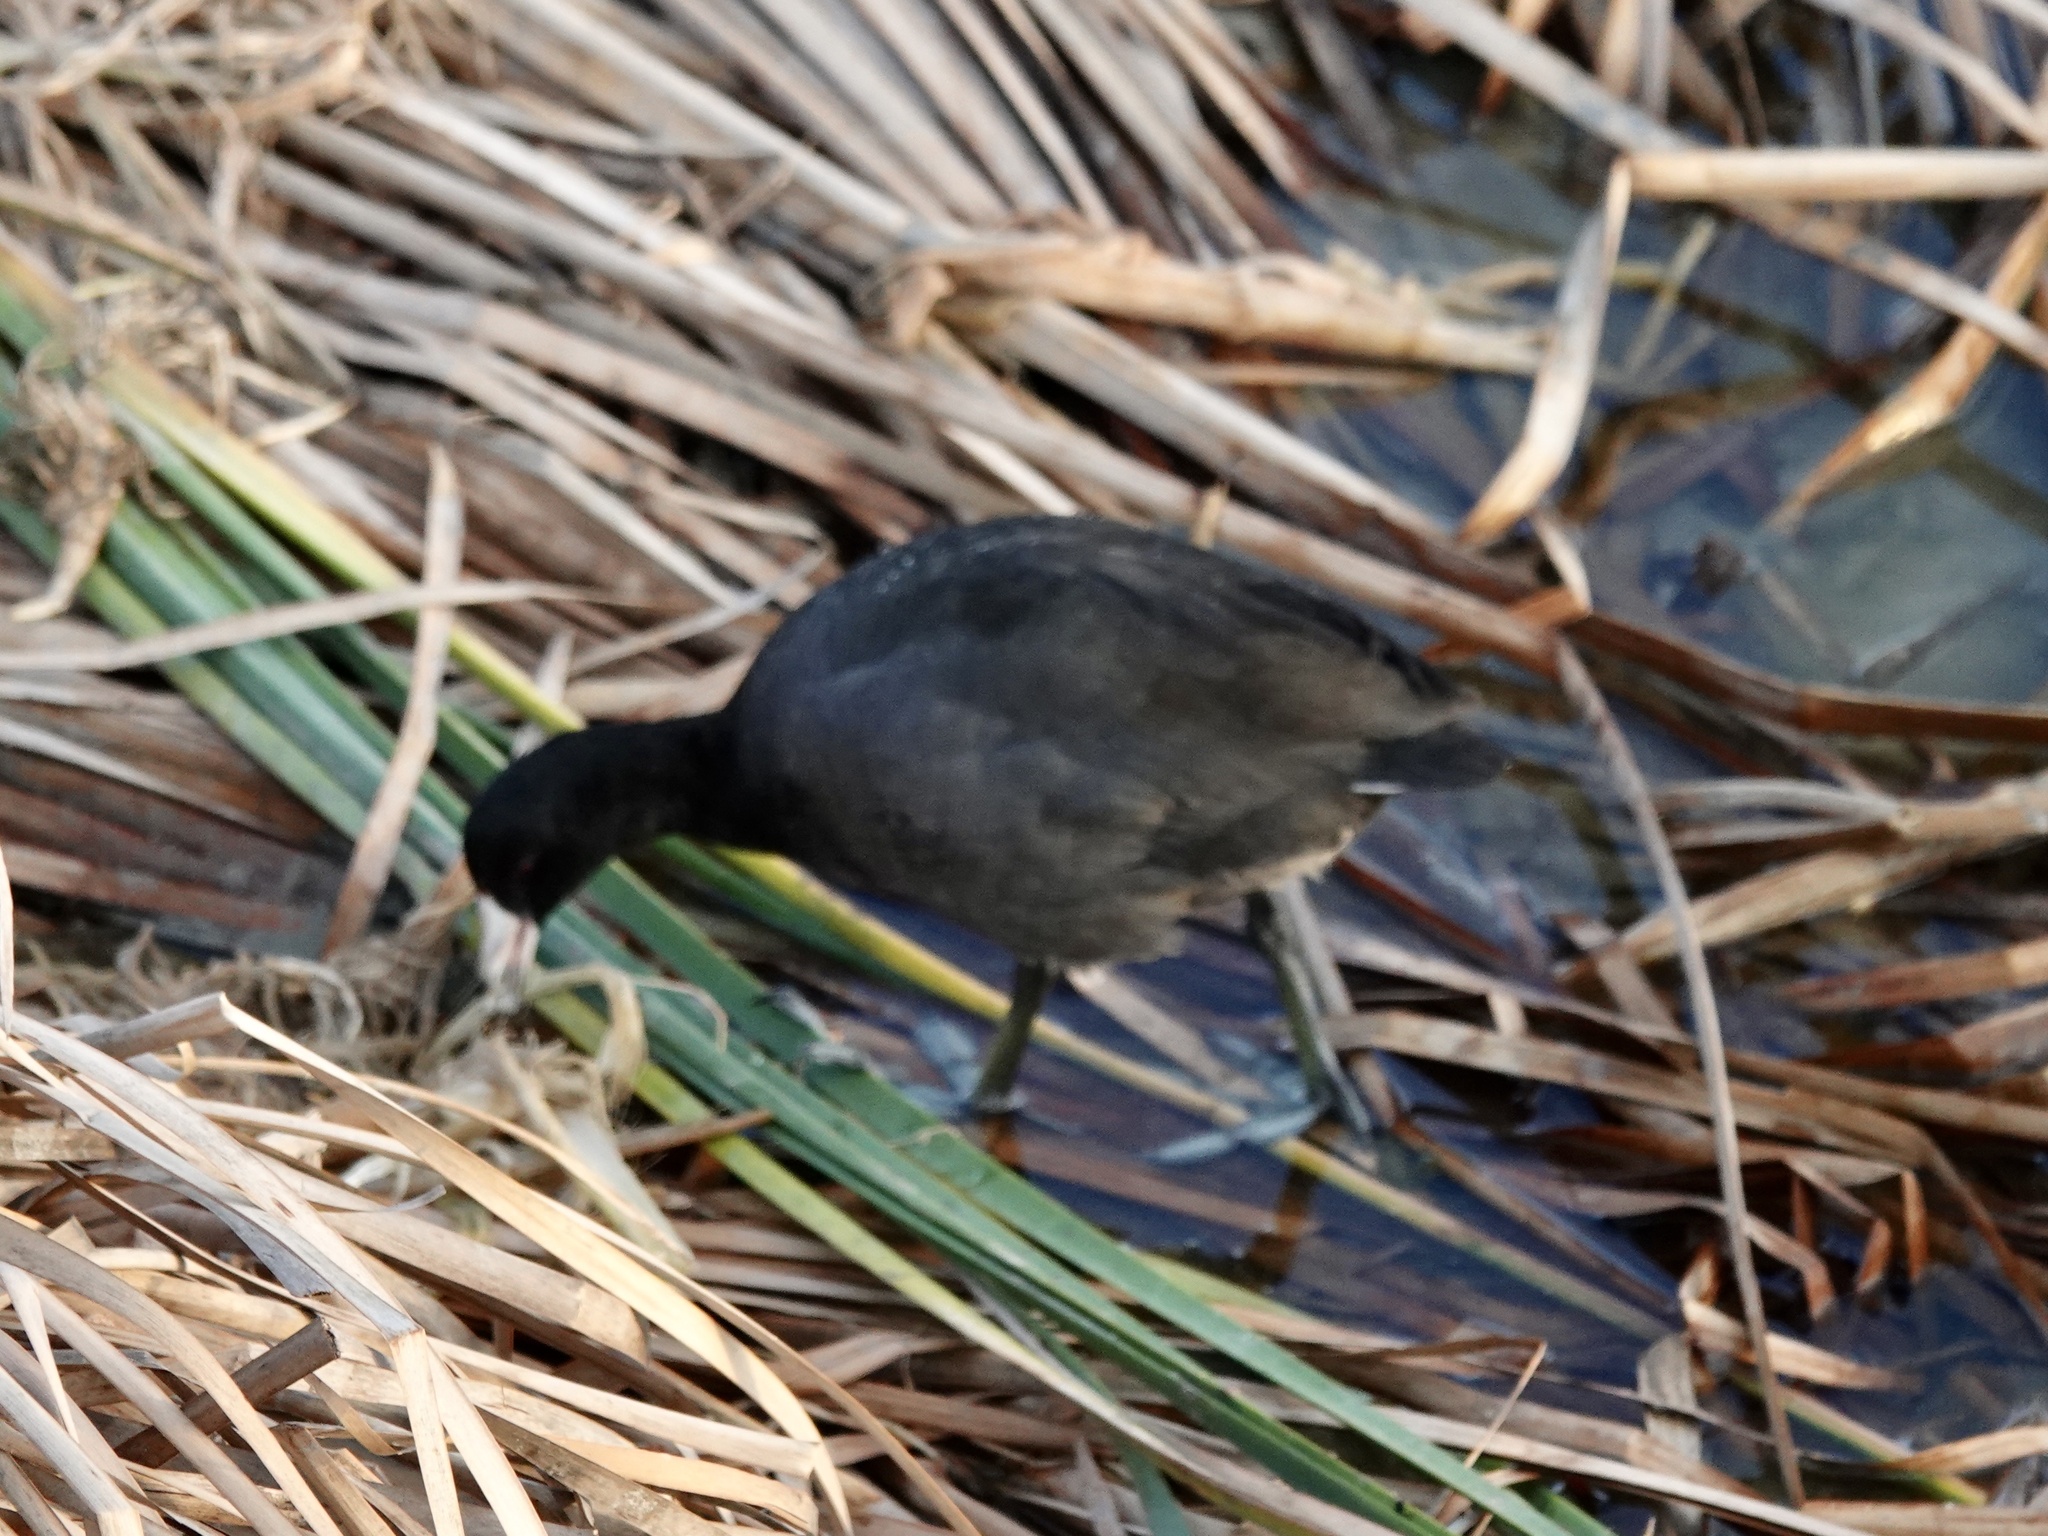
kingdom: Animalia
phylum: Chordata
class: Aves
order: Gruiformes
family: Rallidae
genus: Fulica
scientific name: Fulica americana
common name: American coot
